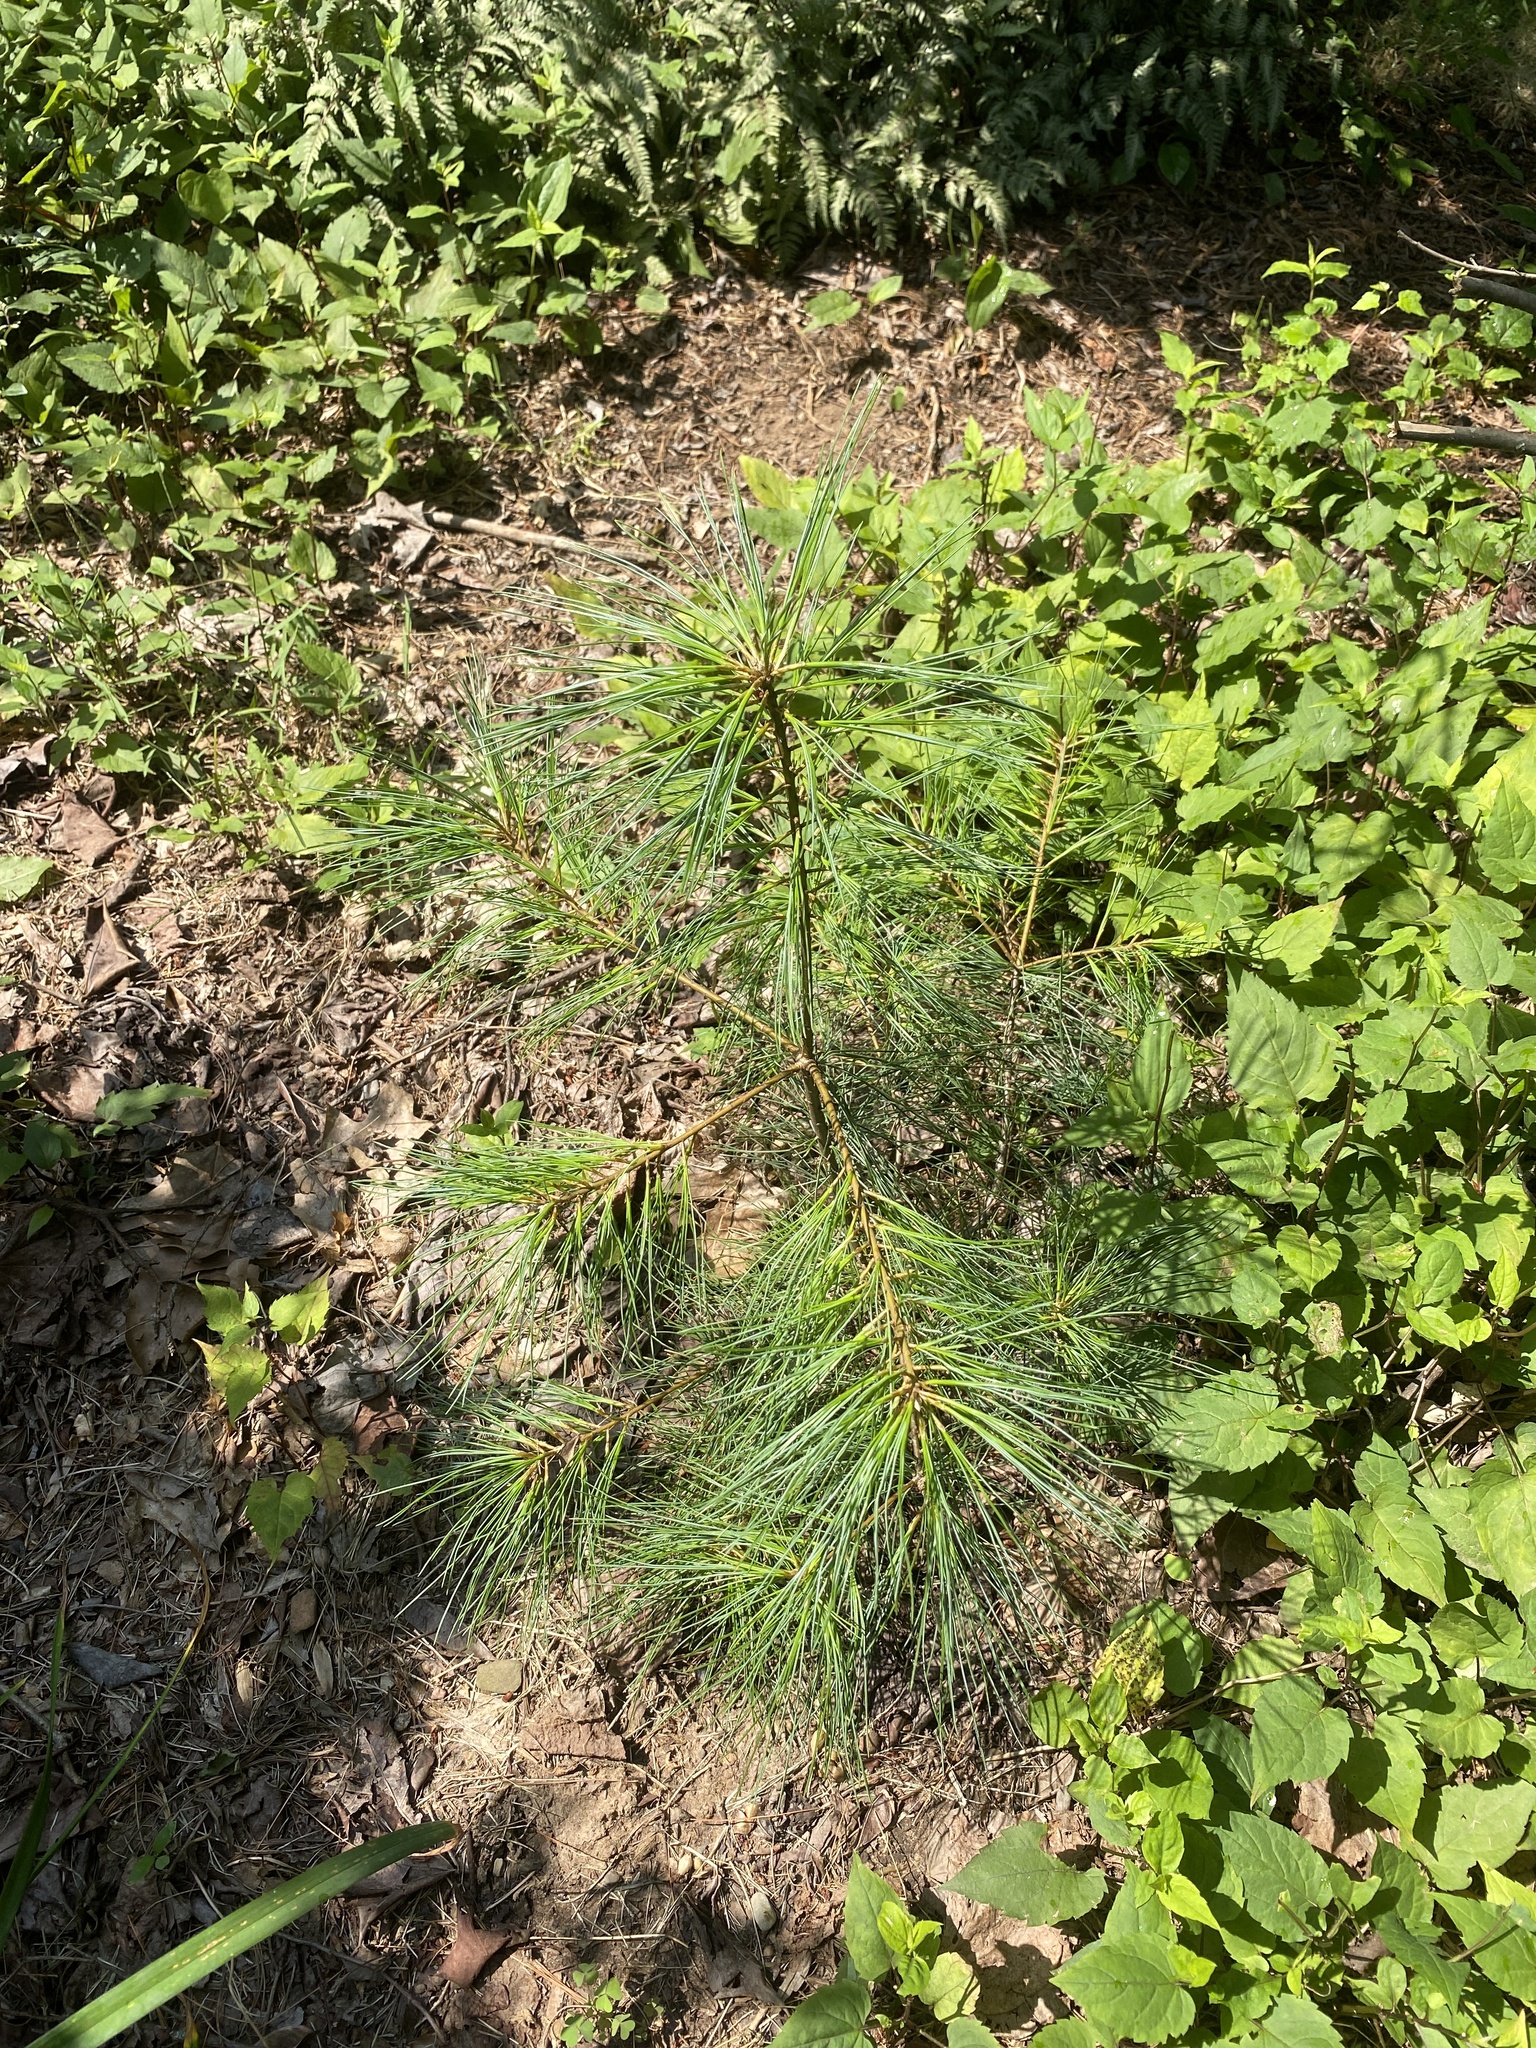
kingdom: Plantae
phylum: Tracheophyta
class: Pinopsida
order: Pinales
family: Pinaceae
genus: Pinus
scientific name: Pinus strobus
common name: Weymouth pine
